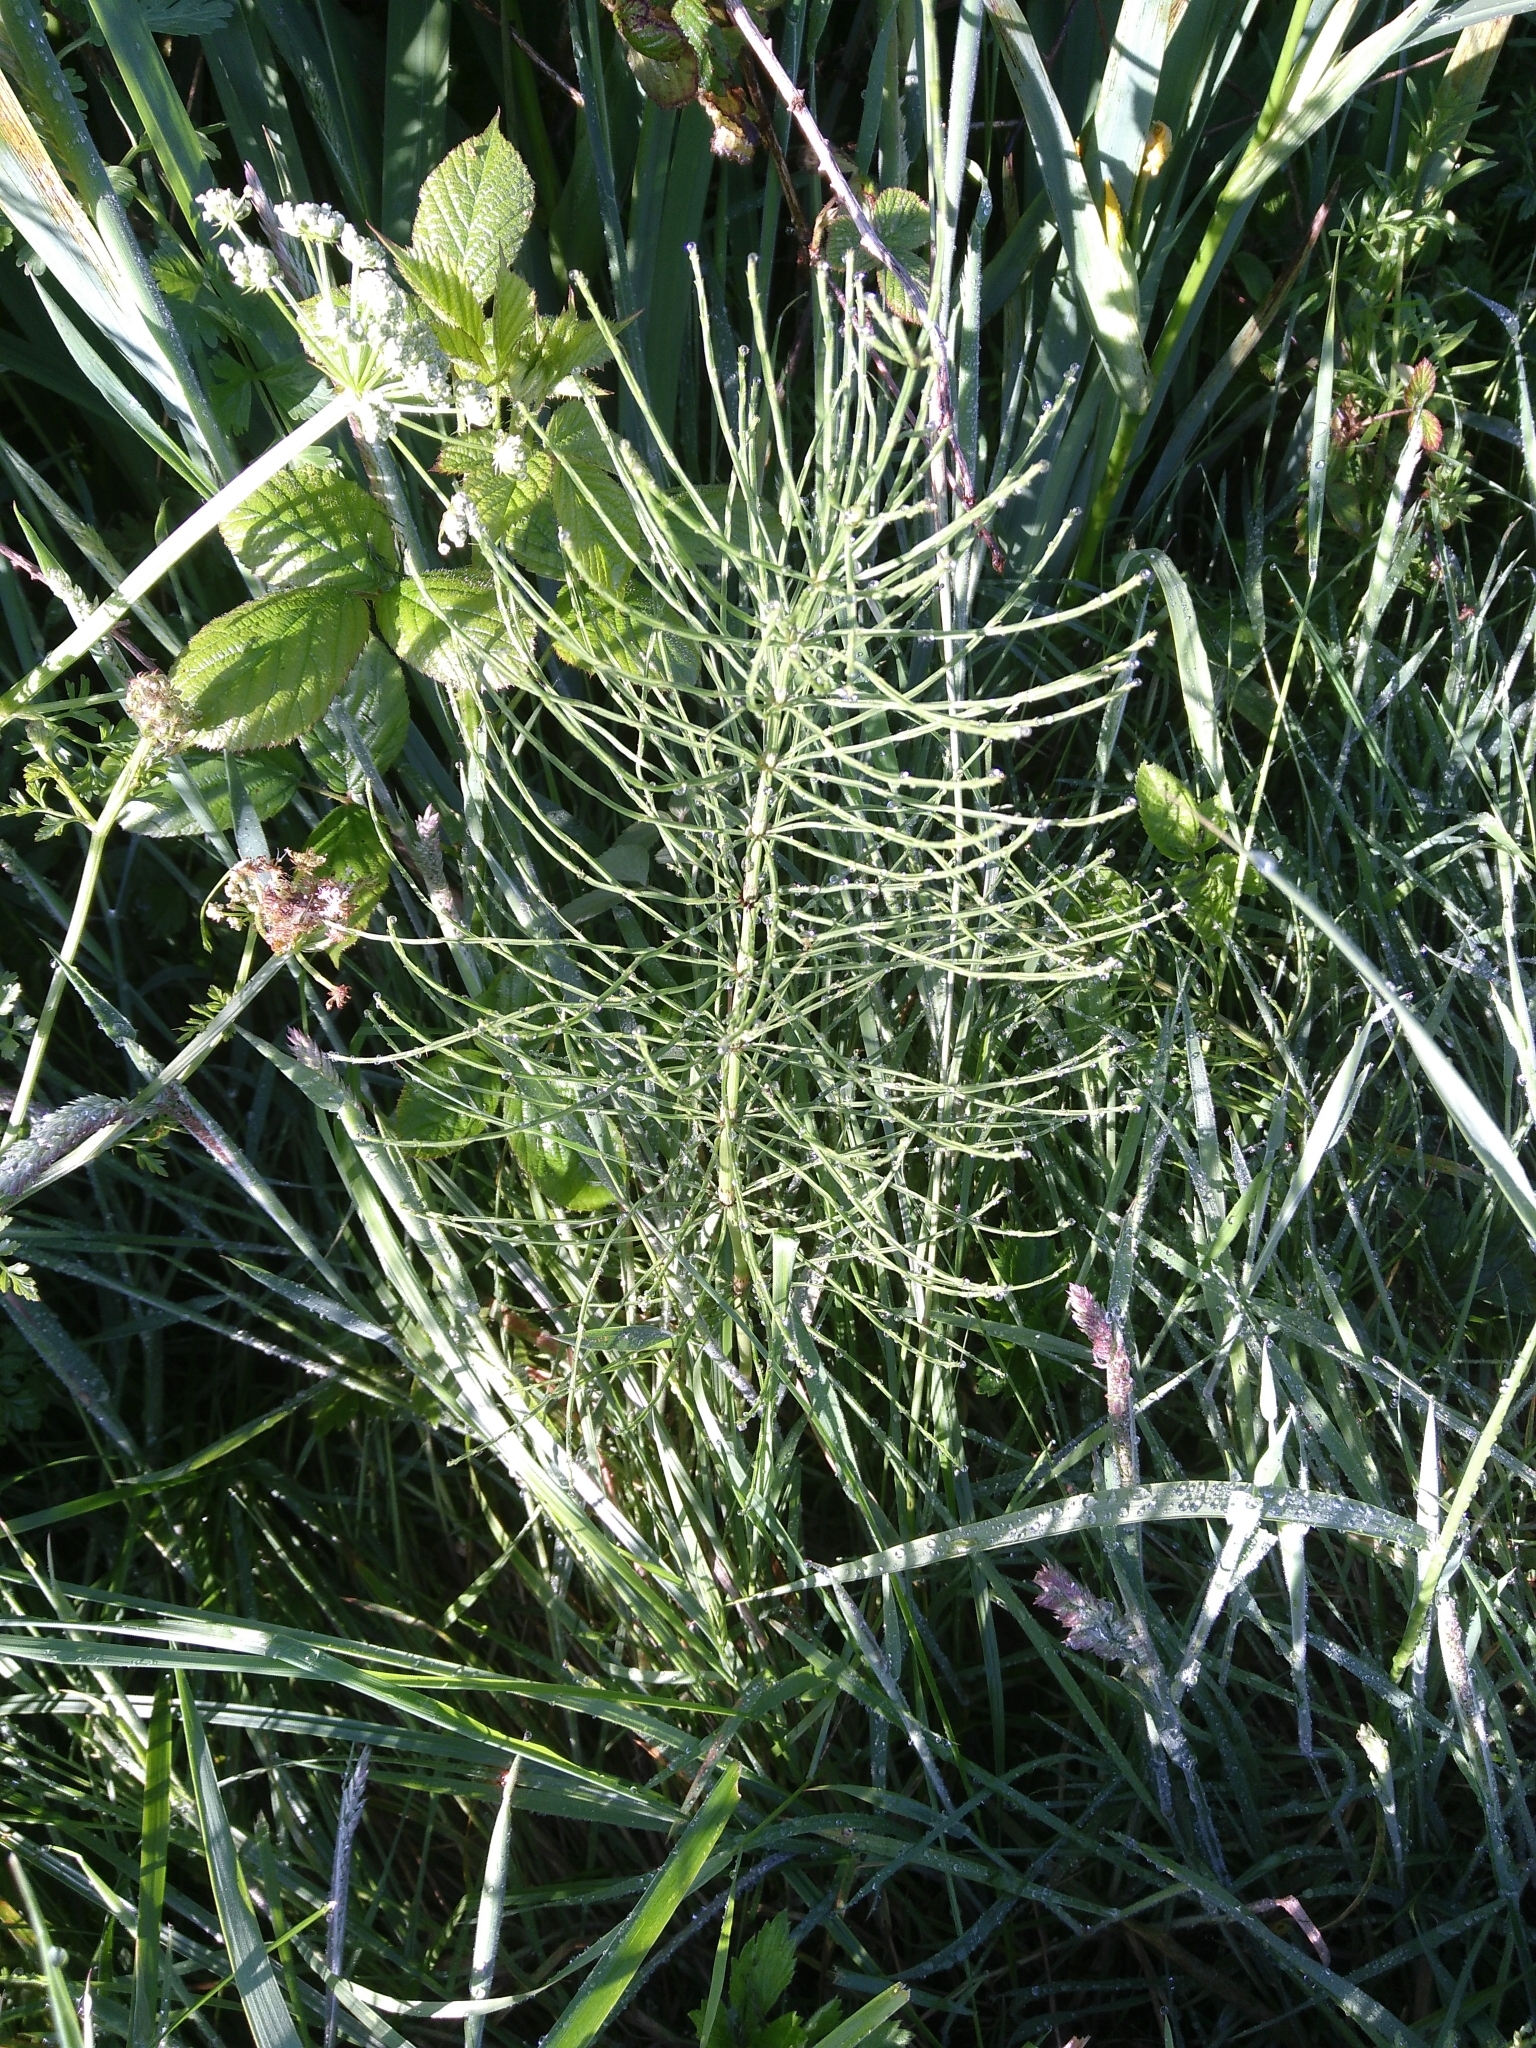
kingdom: Plantae
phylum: Tracheophyta
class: Polypodiopsida
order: Equisetales
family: Equisetaceae
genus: Equisetum
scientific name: Equisetum arvense
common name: Field horsetail
